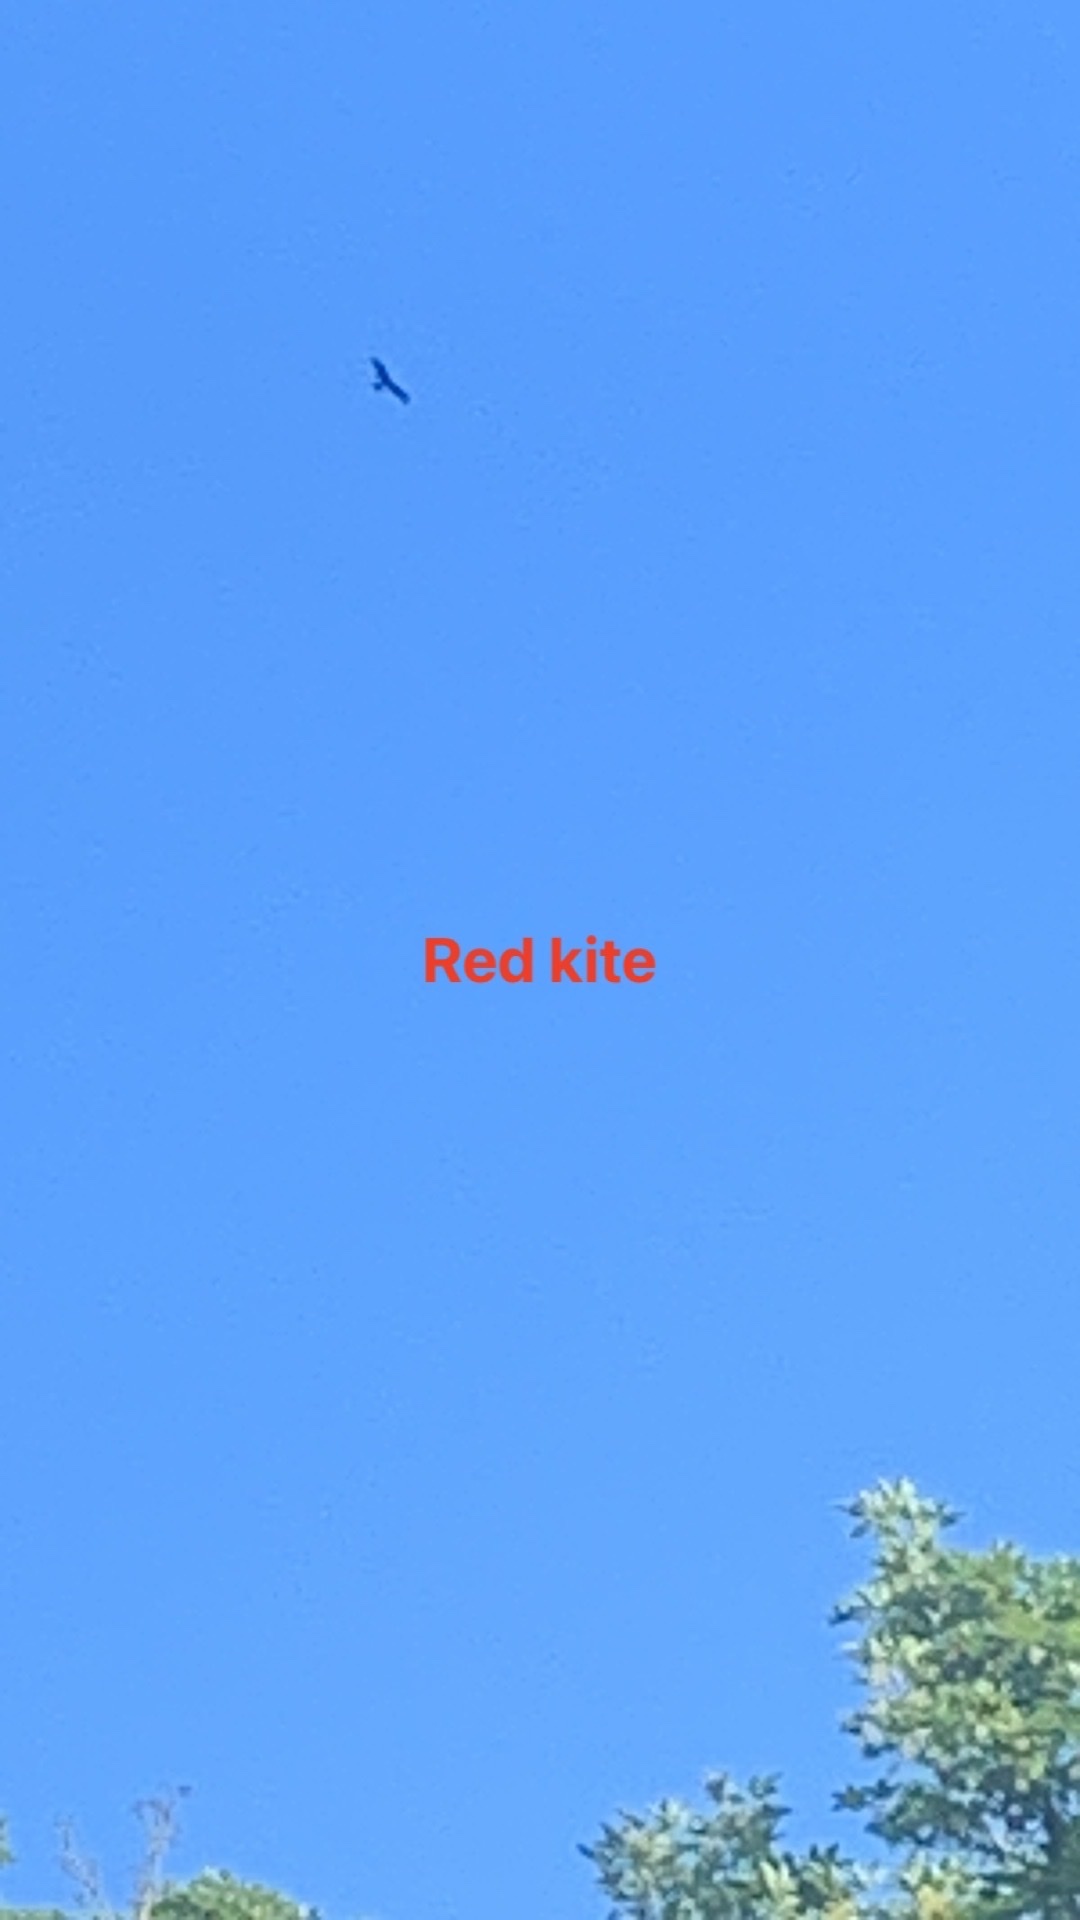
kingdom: Animalia
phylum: Chordata
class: Aves
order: Accipitriformes
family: Accipitridae
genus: Milvus
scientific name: Milvus milvus
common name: Red kite
